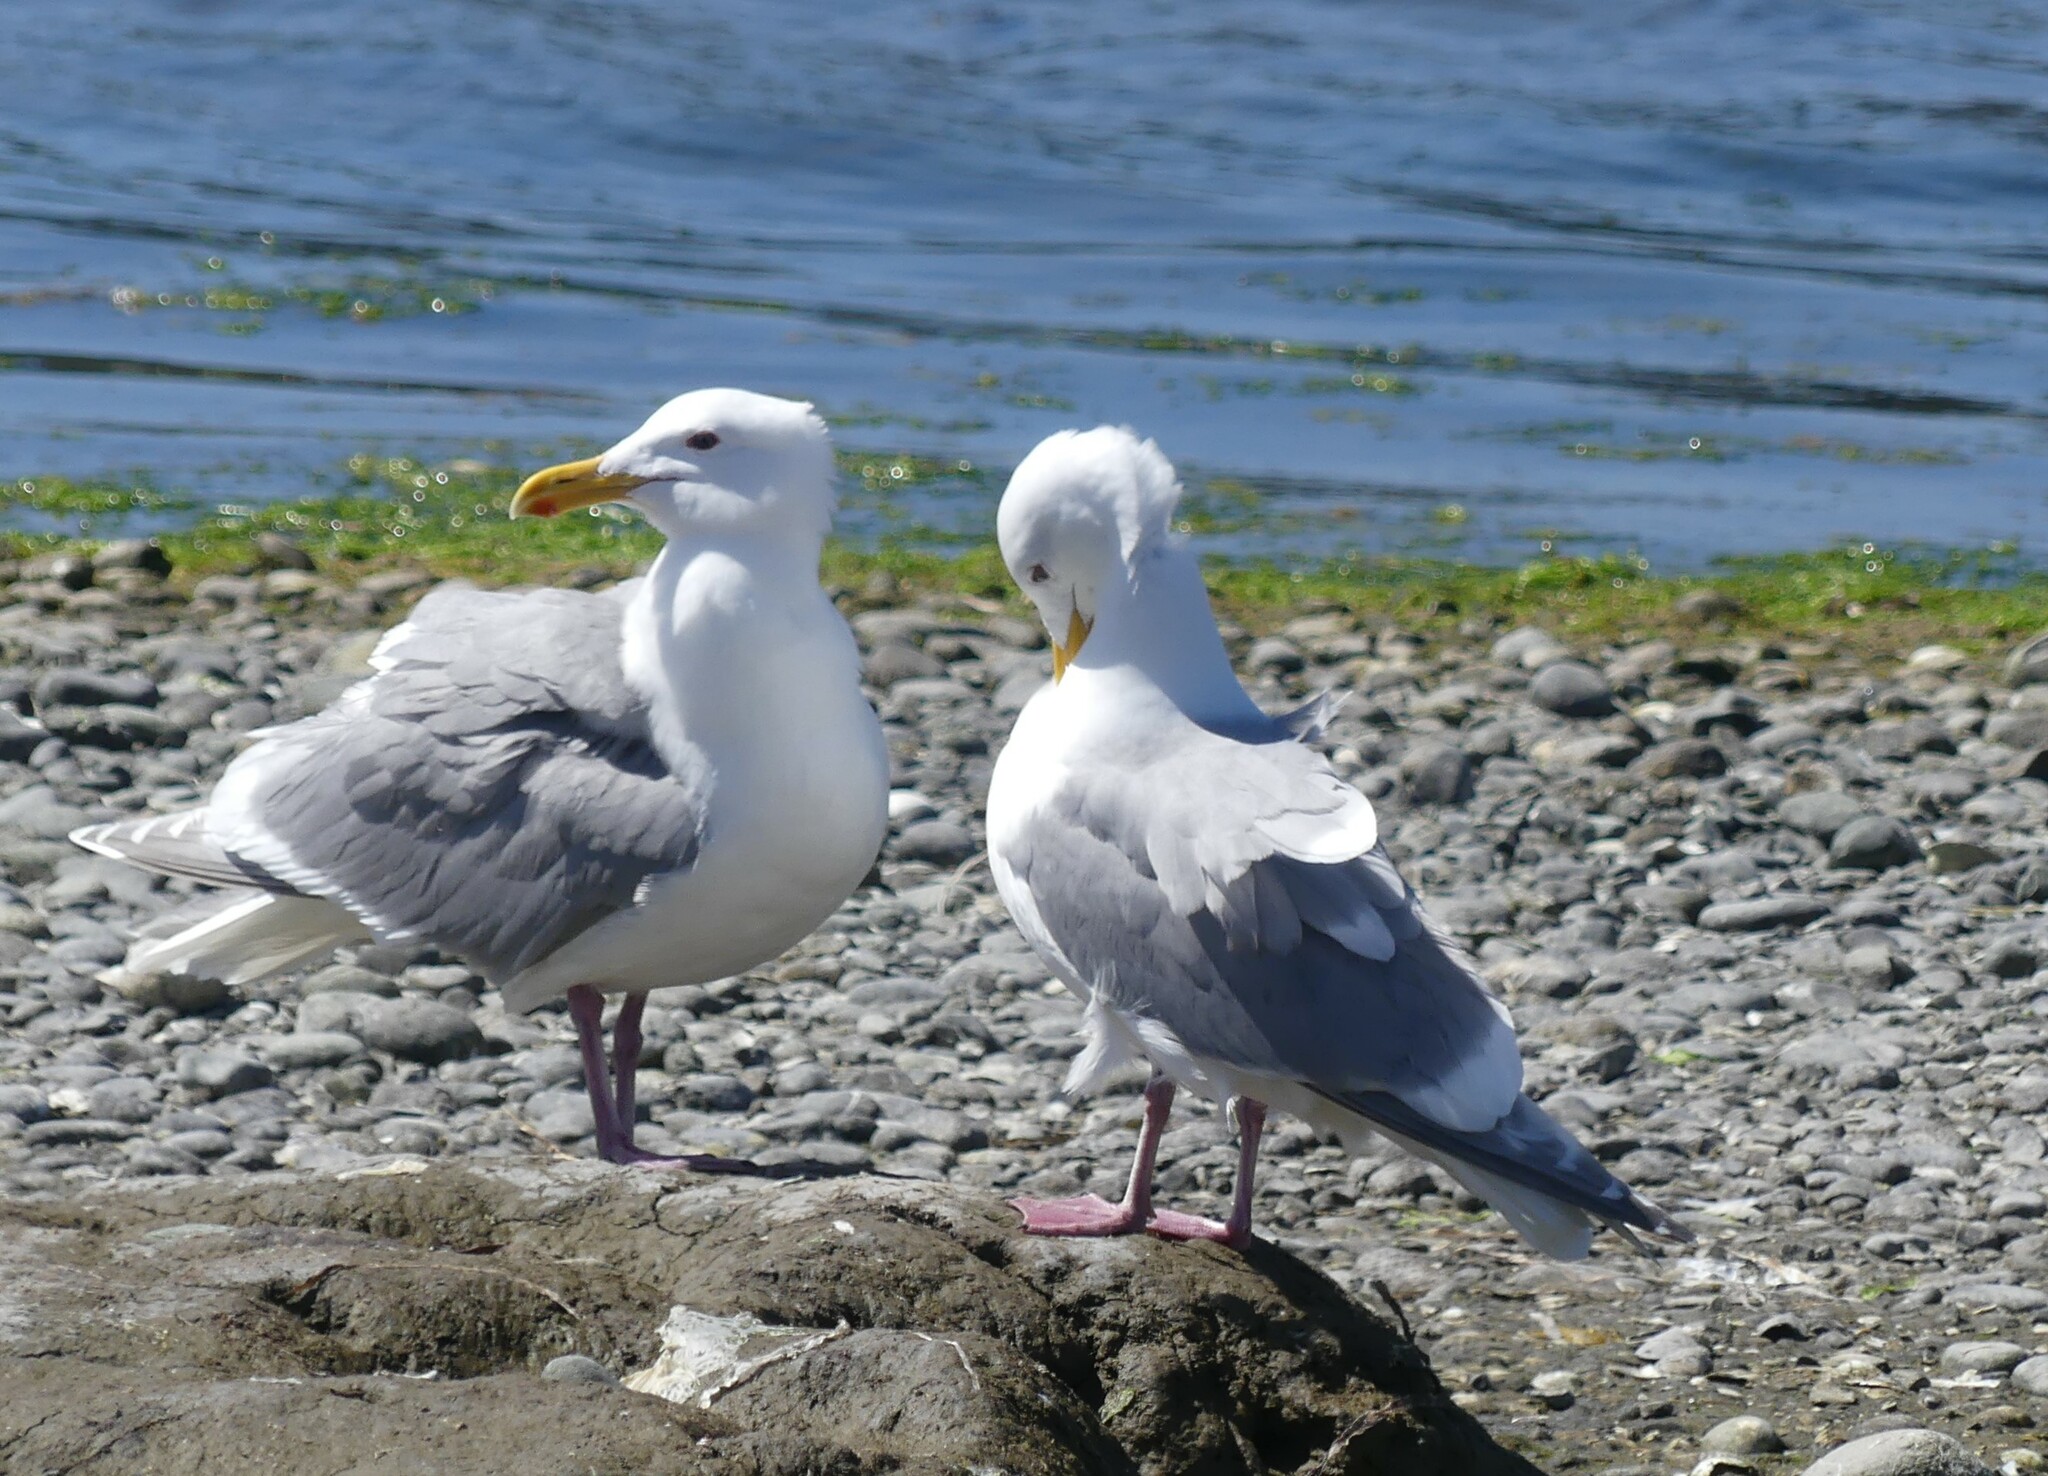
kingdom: Animalia
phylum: Chordata
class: Aves
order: Charadriiformes
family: Laridae
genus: Larus
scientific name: Larus
